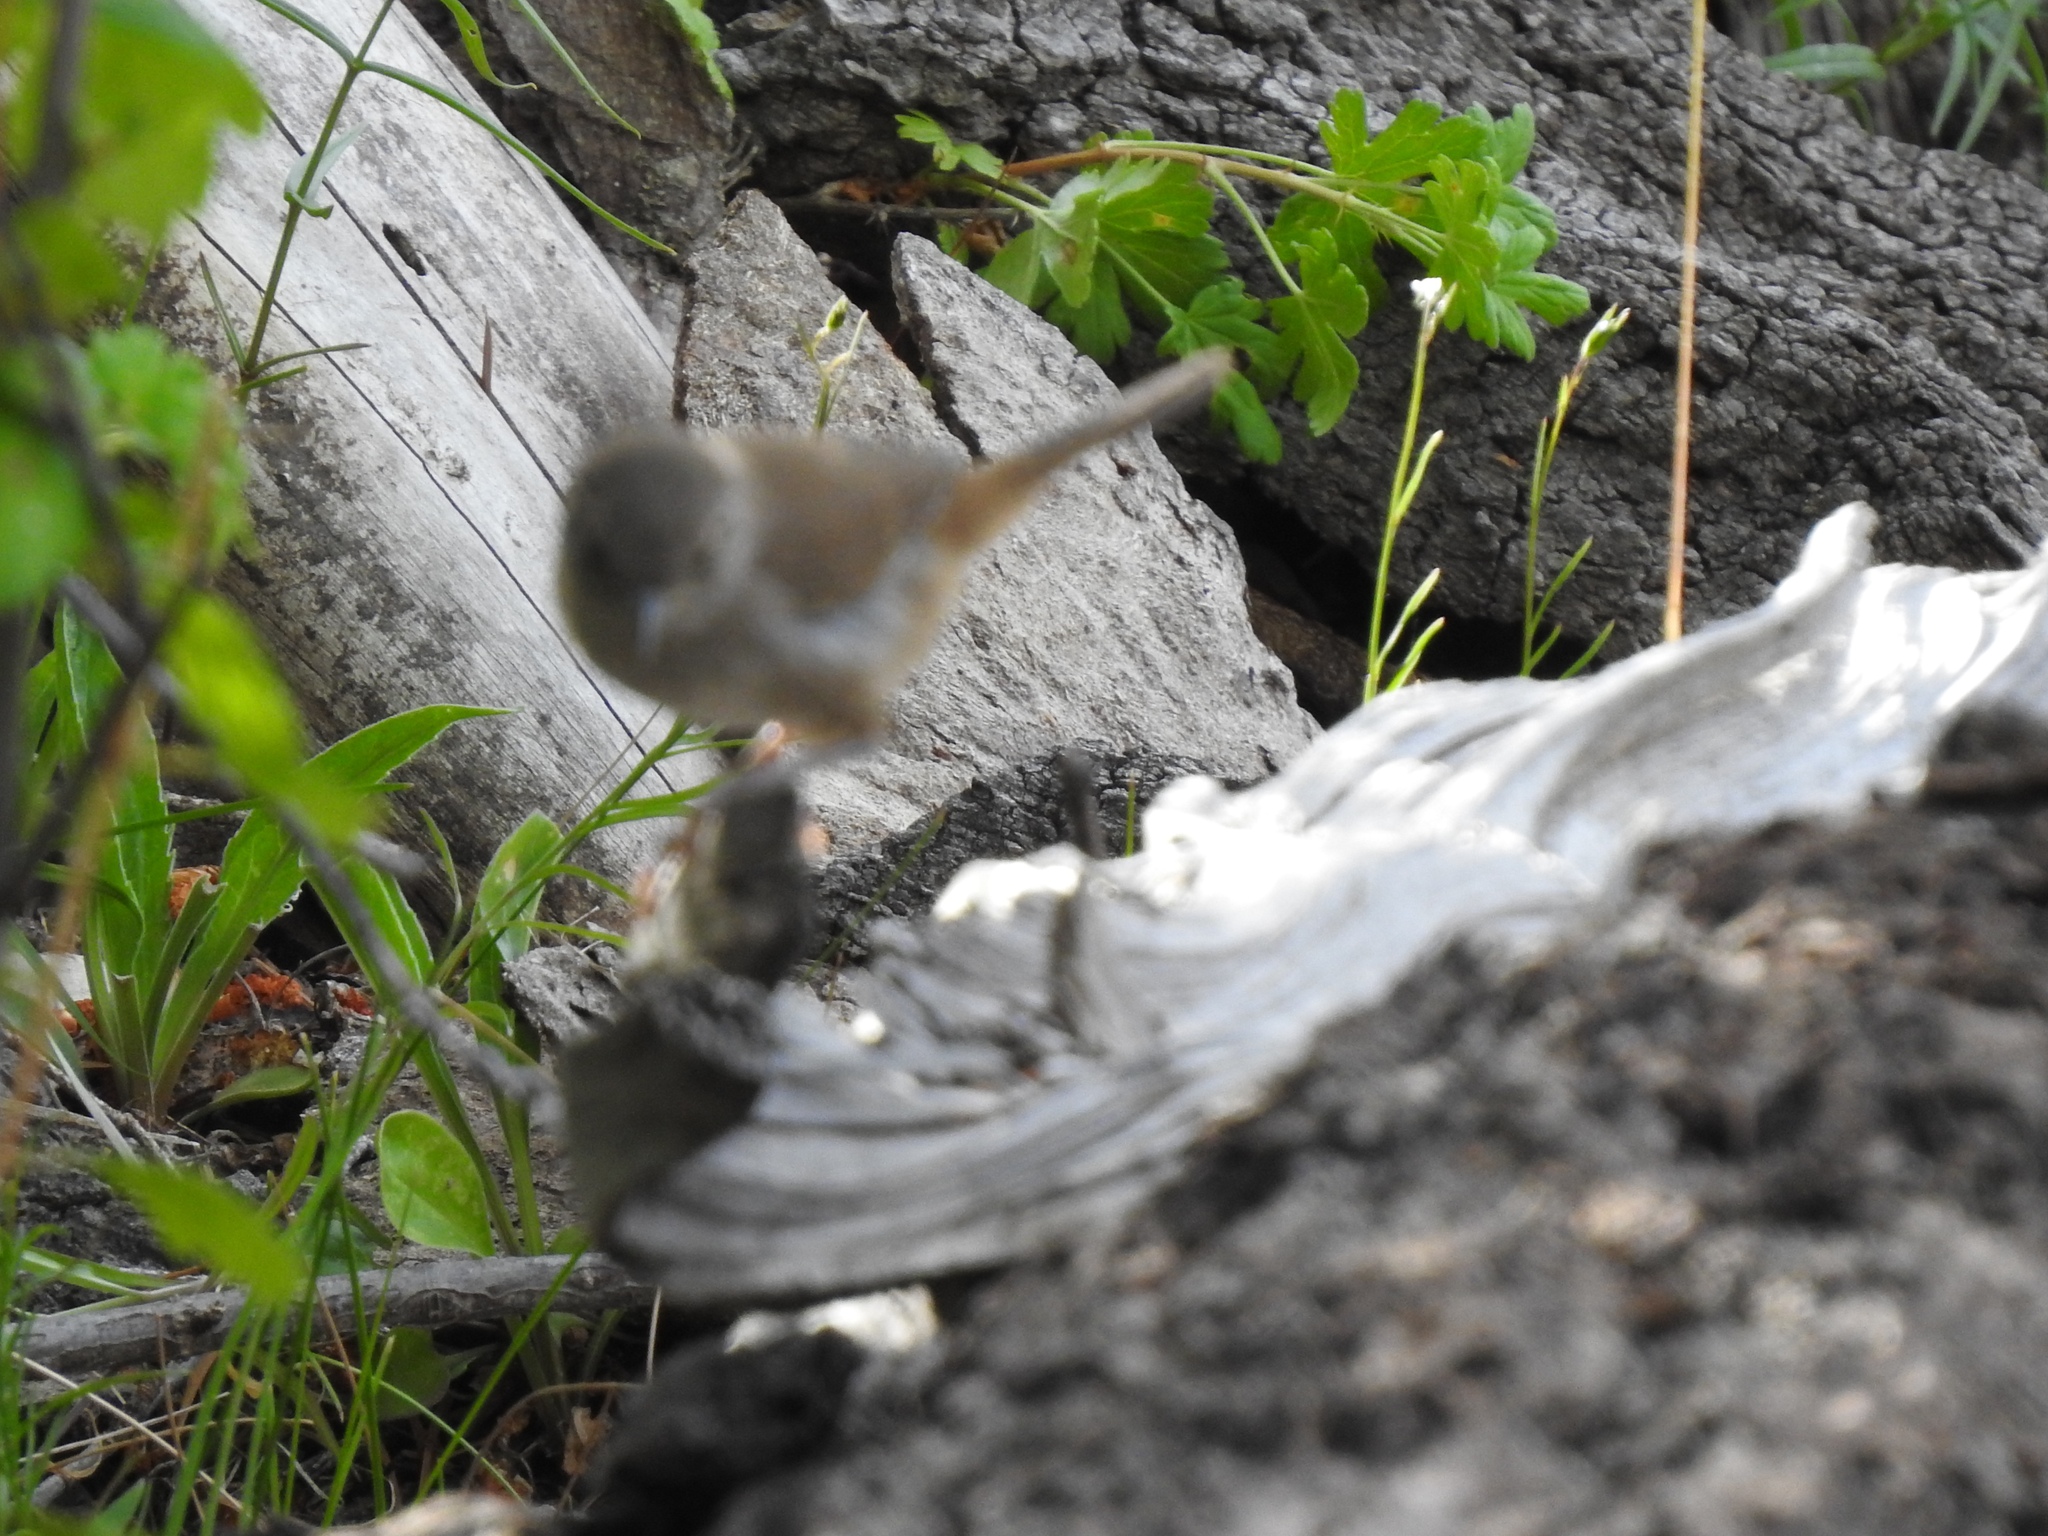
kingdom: Animalia
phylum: Chordata
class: Aves
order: Passeriformes
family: Troglodytidae
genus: Troglodytes
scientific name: Troglodytes aedon
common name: House wren
